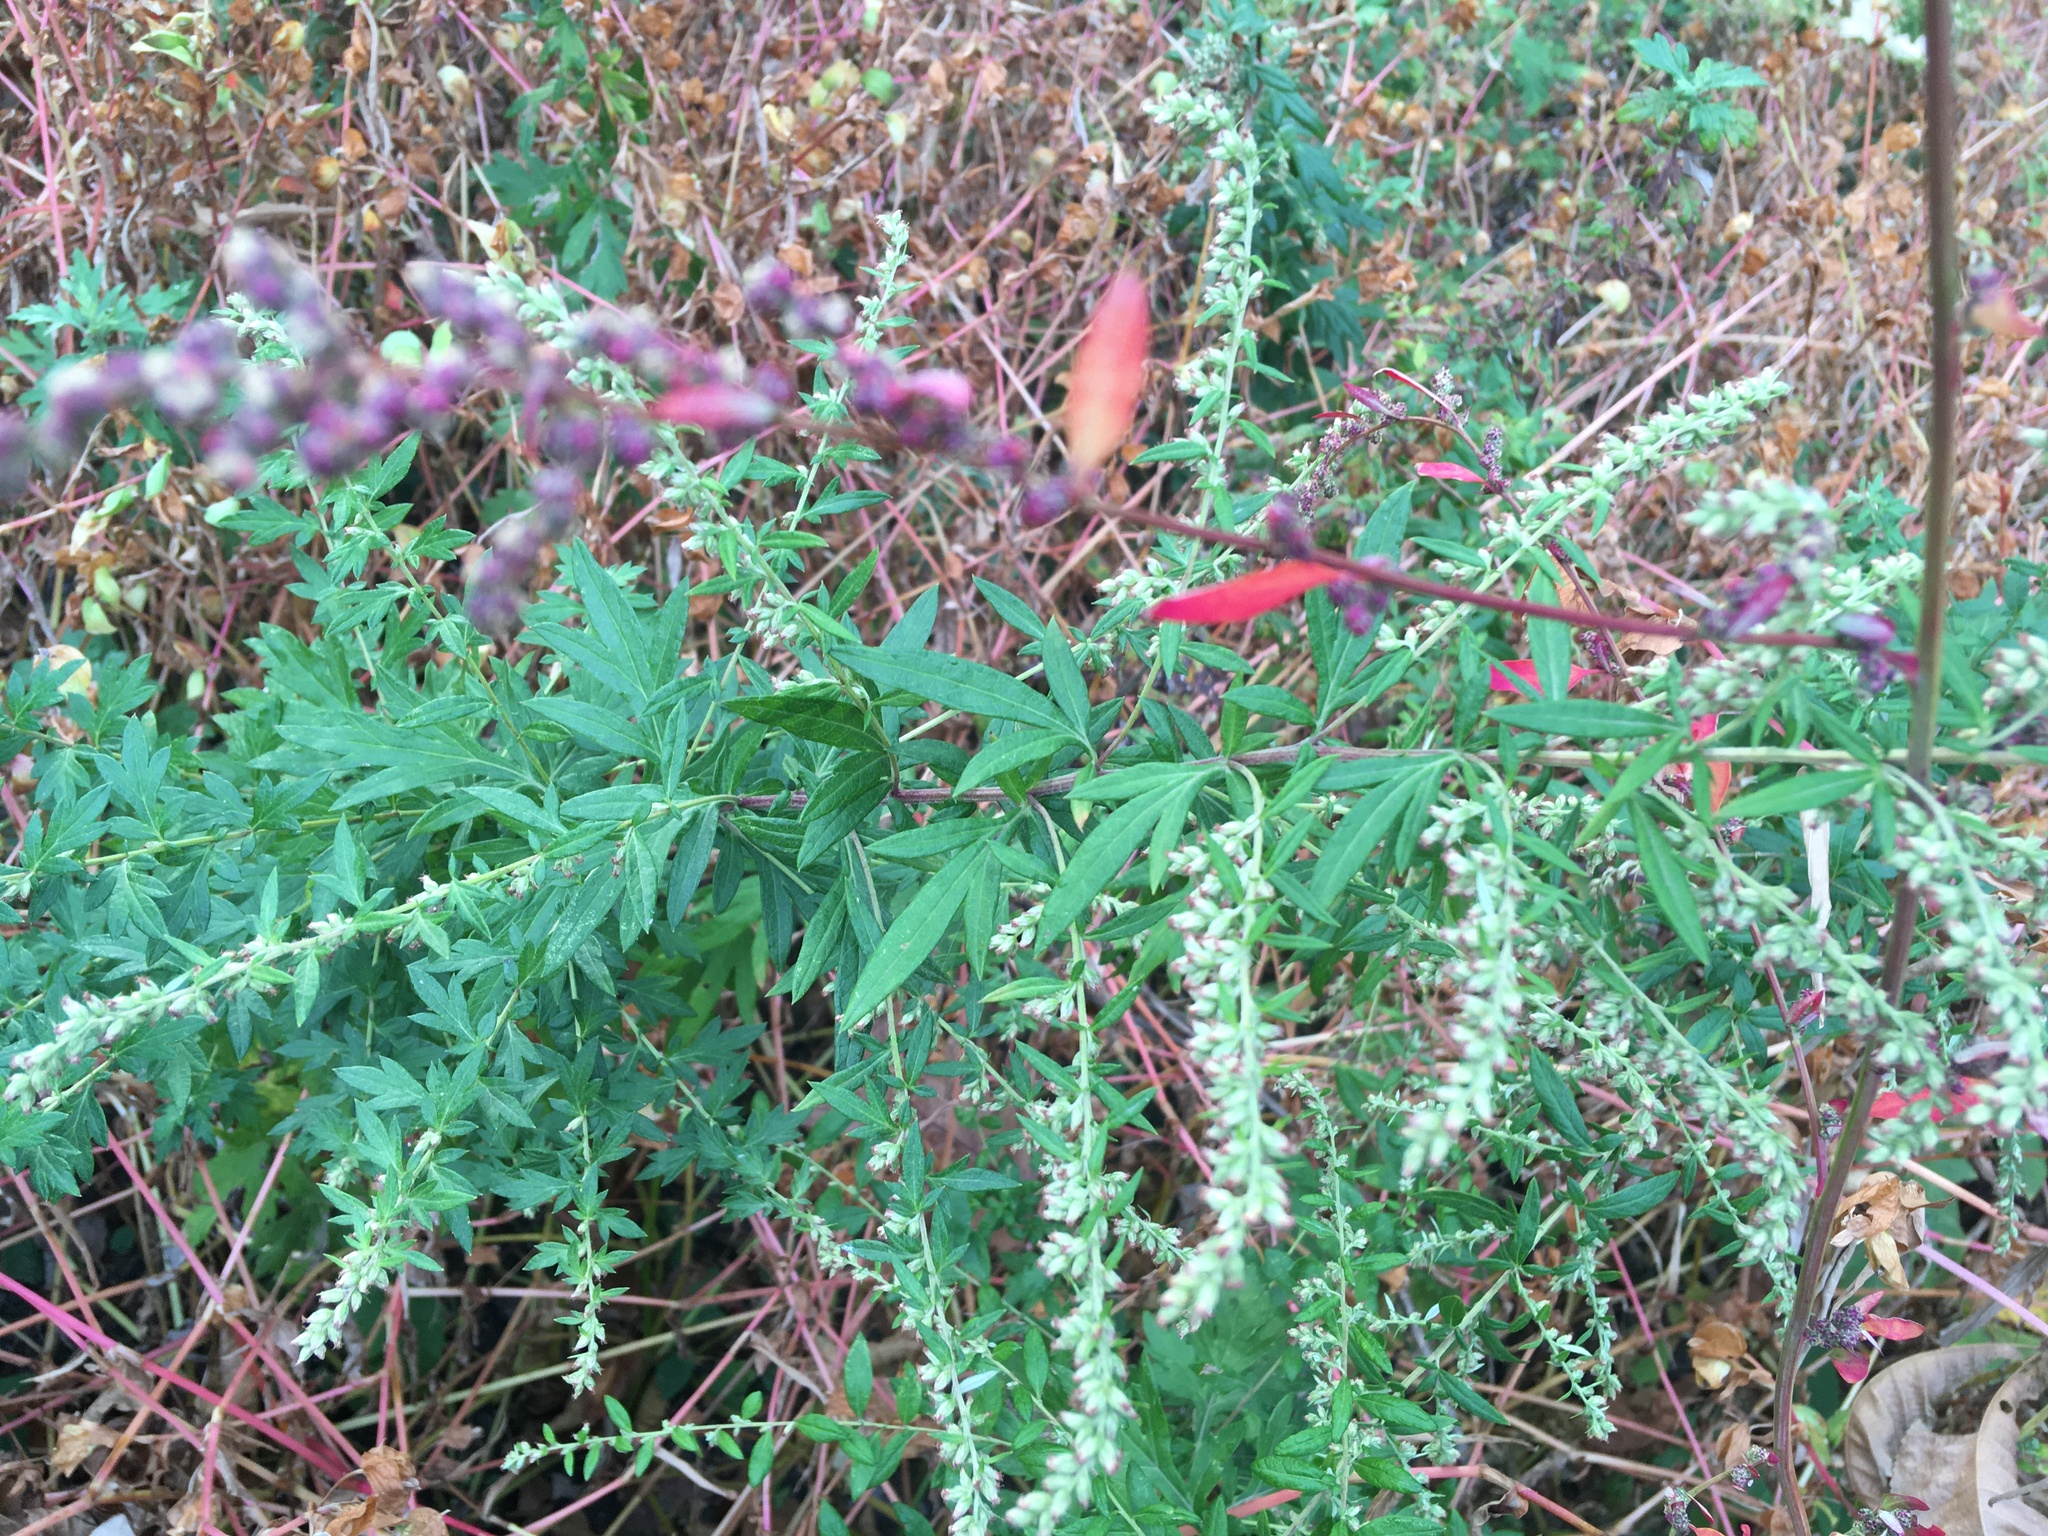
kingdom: Plantae
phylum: Tracheophyta
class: Magnoliopsida
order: Asterales
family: Asteraceae
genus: Artemisia
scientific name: Artemisia vulgaris
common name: Mugwort
